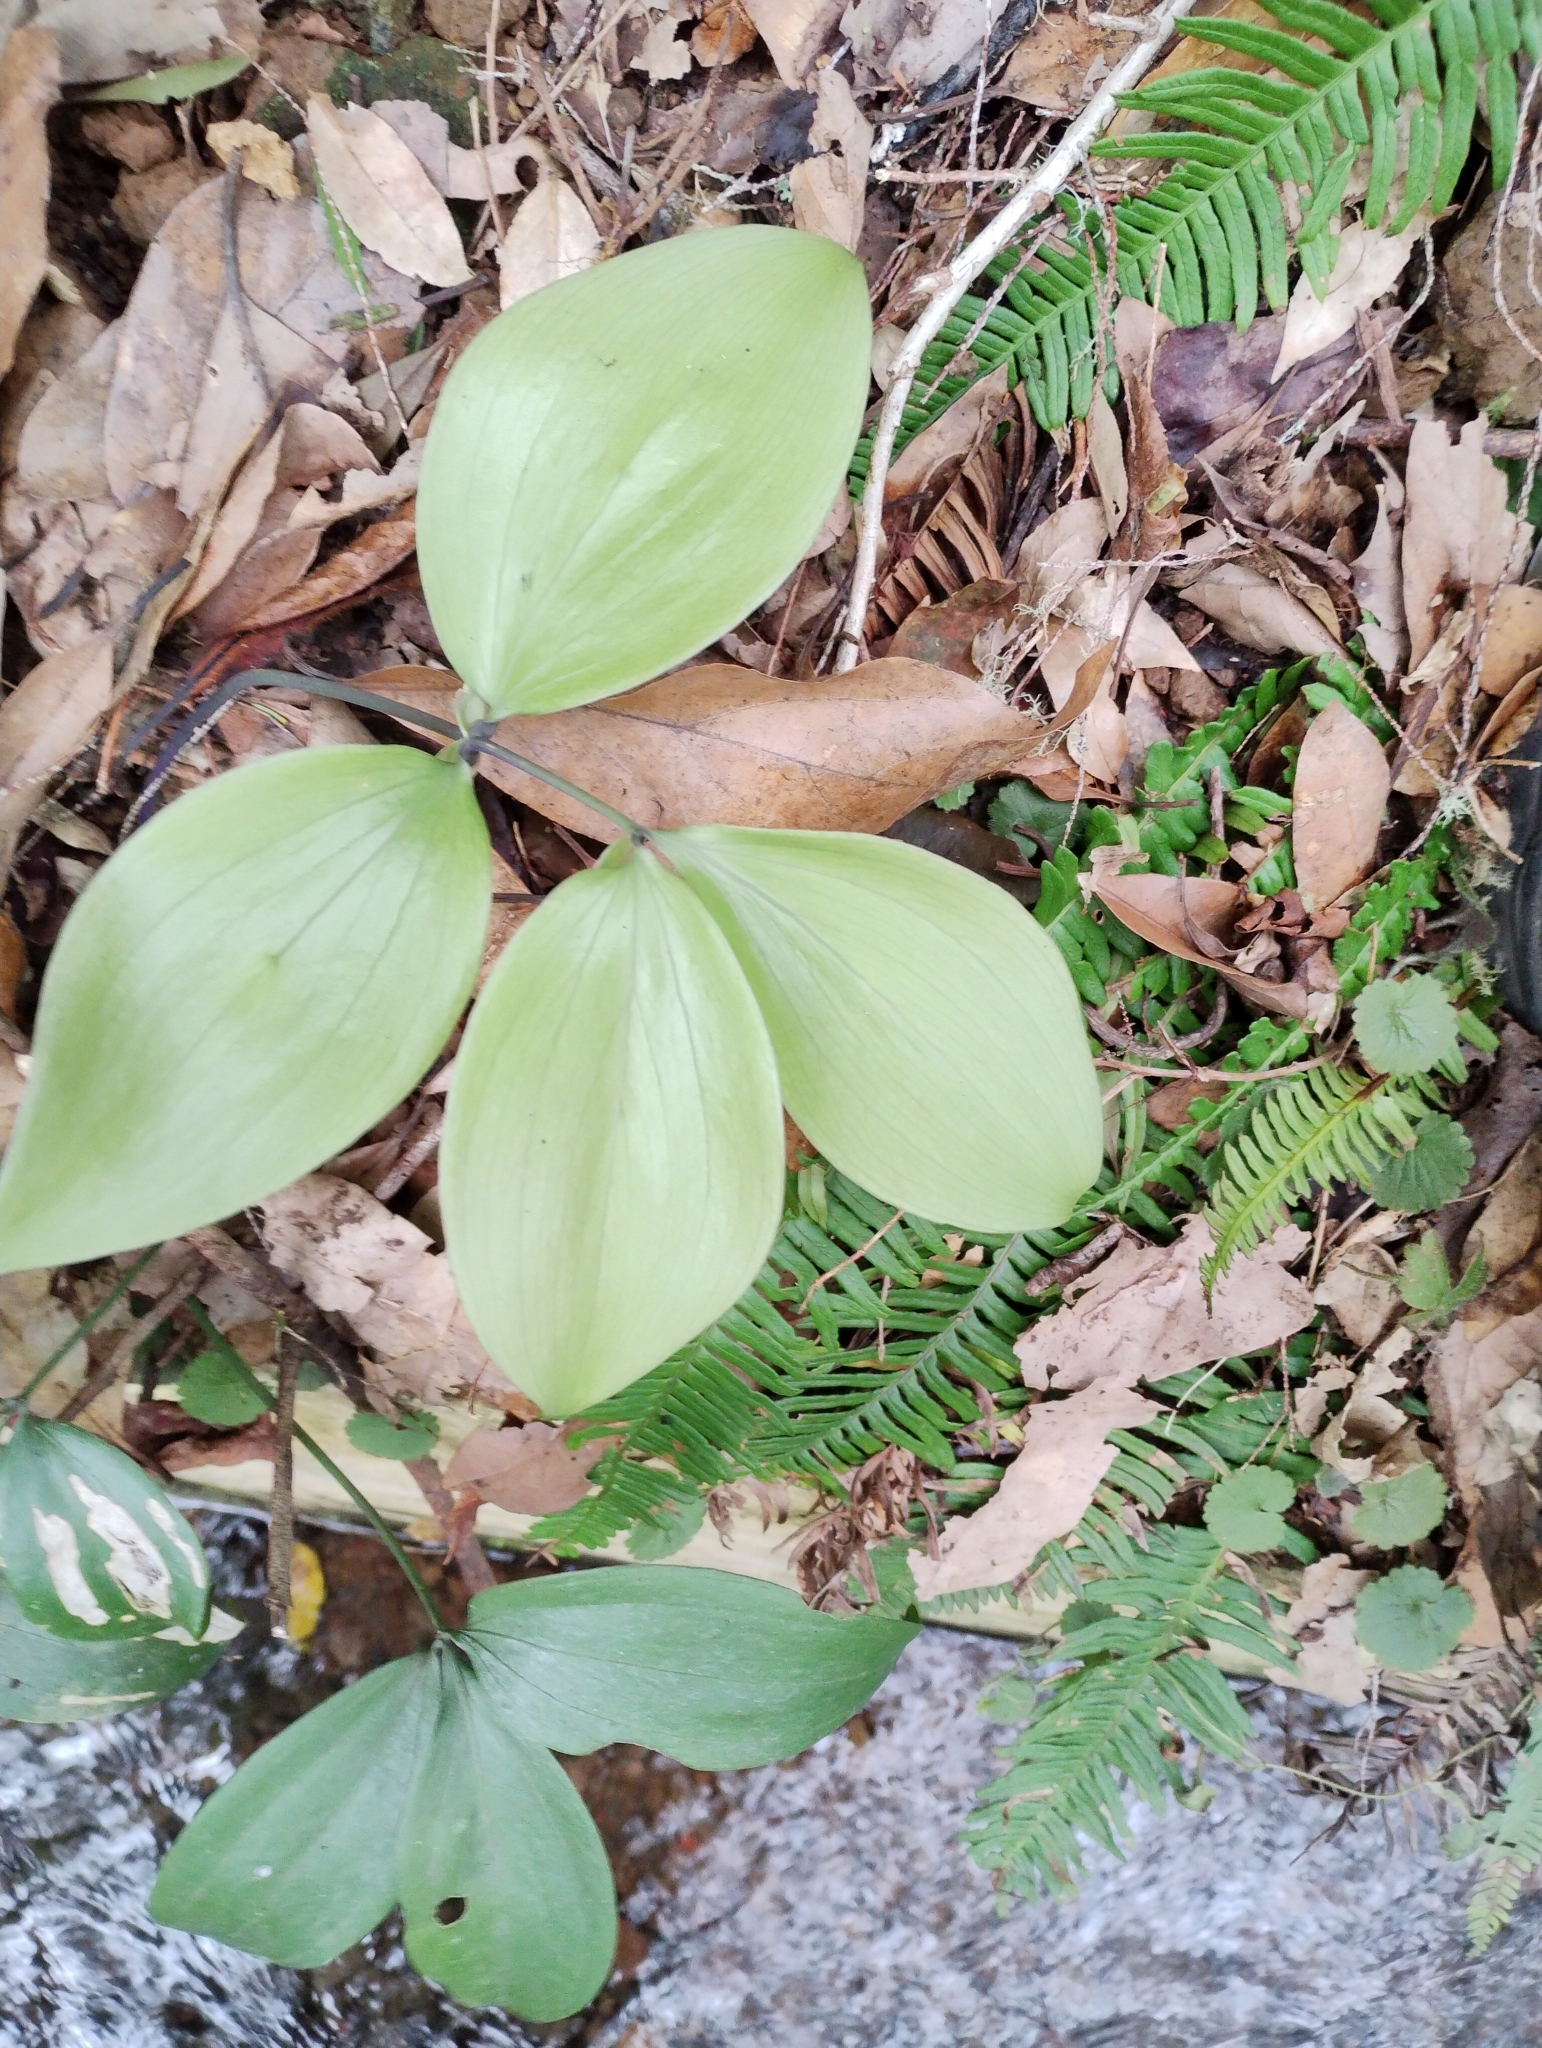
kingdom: Plantae
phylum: Tracheophyta
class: Liliopsida
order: Asparagales
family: Asparagaceae
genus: Ruscus
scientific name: Ruscus streptophyllus
